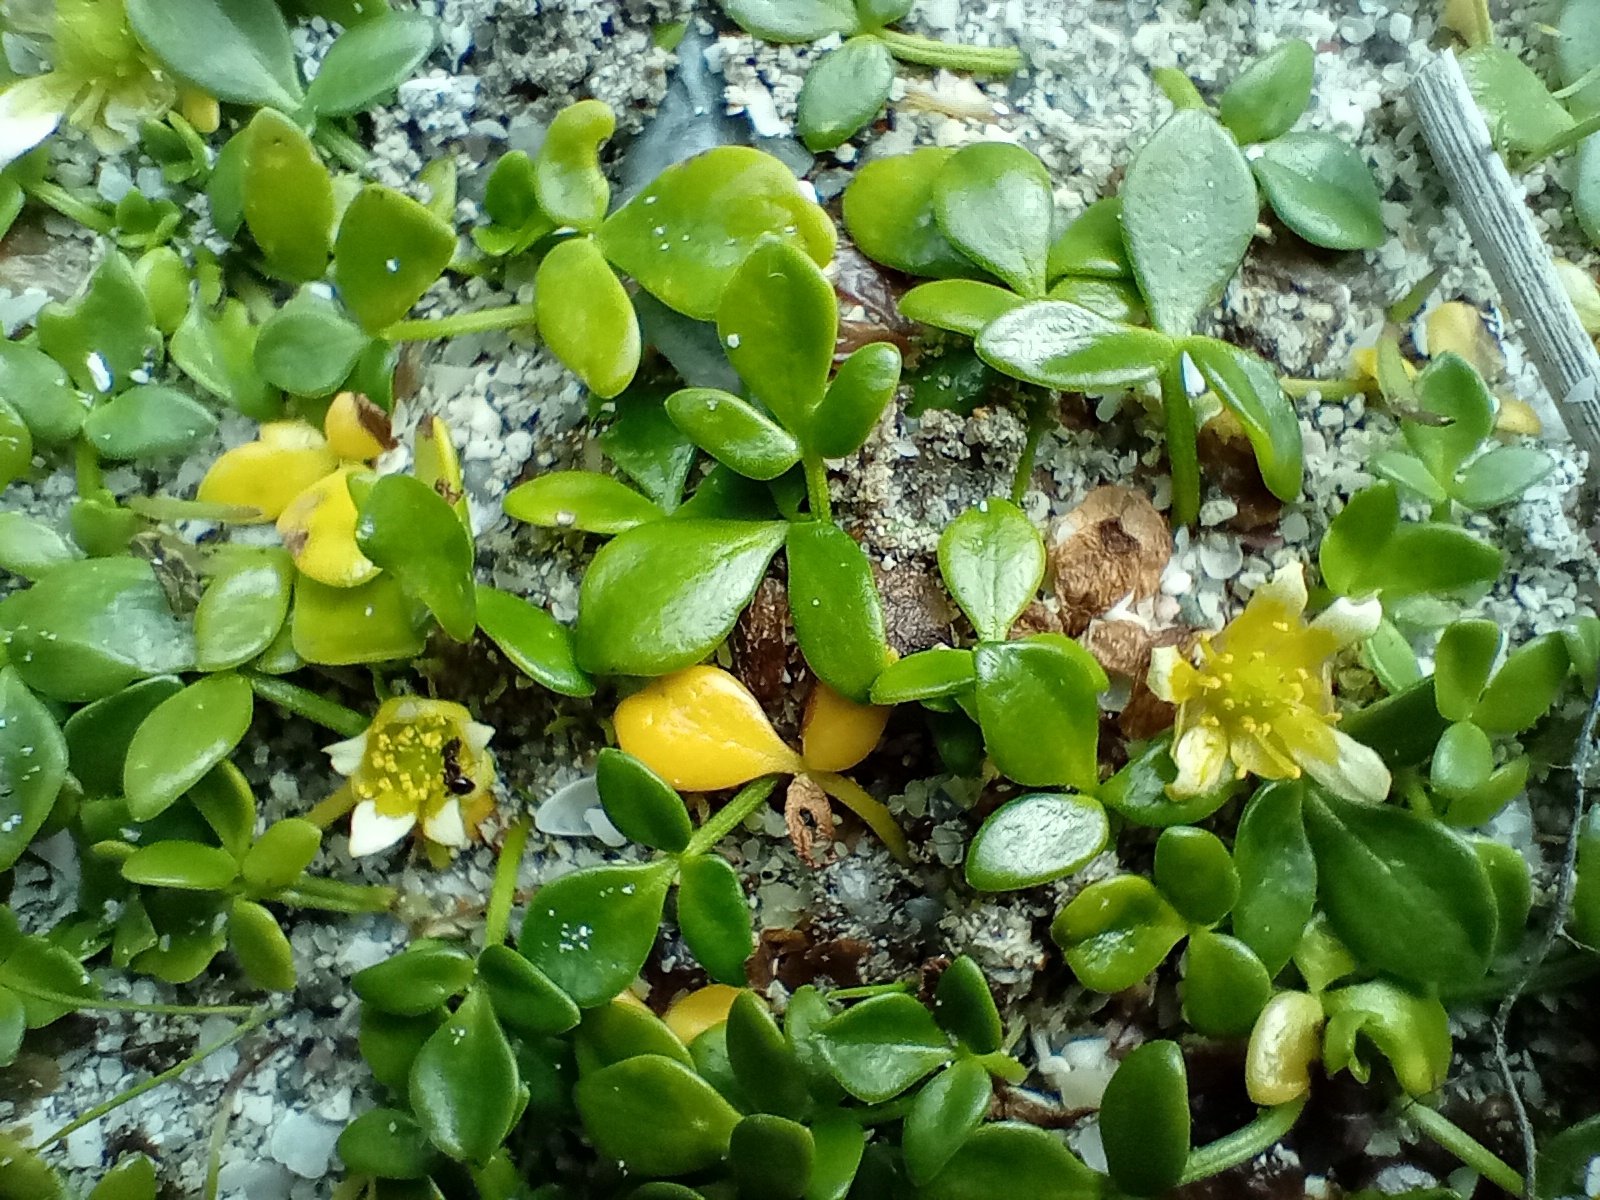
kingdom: Plantae
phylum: Tracheophyta
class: Magnoliopsida
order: Ranunculales
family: Ranunculaceae
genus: Ranunculus
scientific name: Ranunculus acaulis
